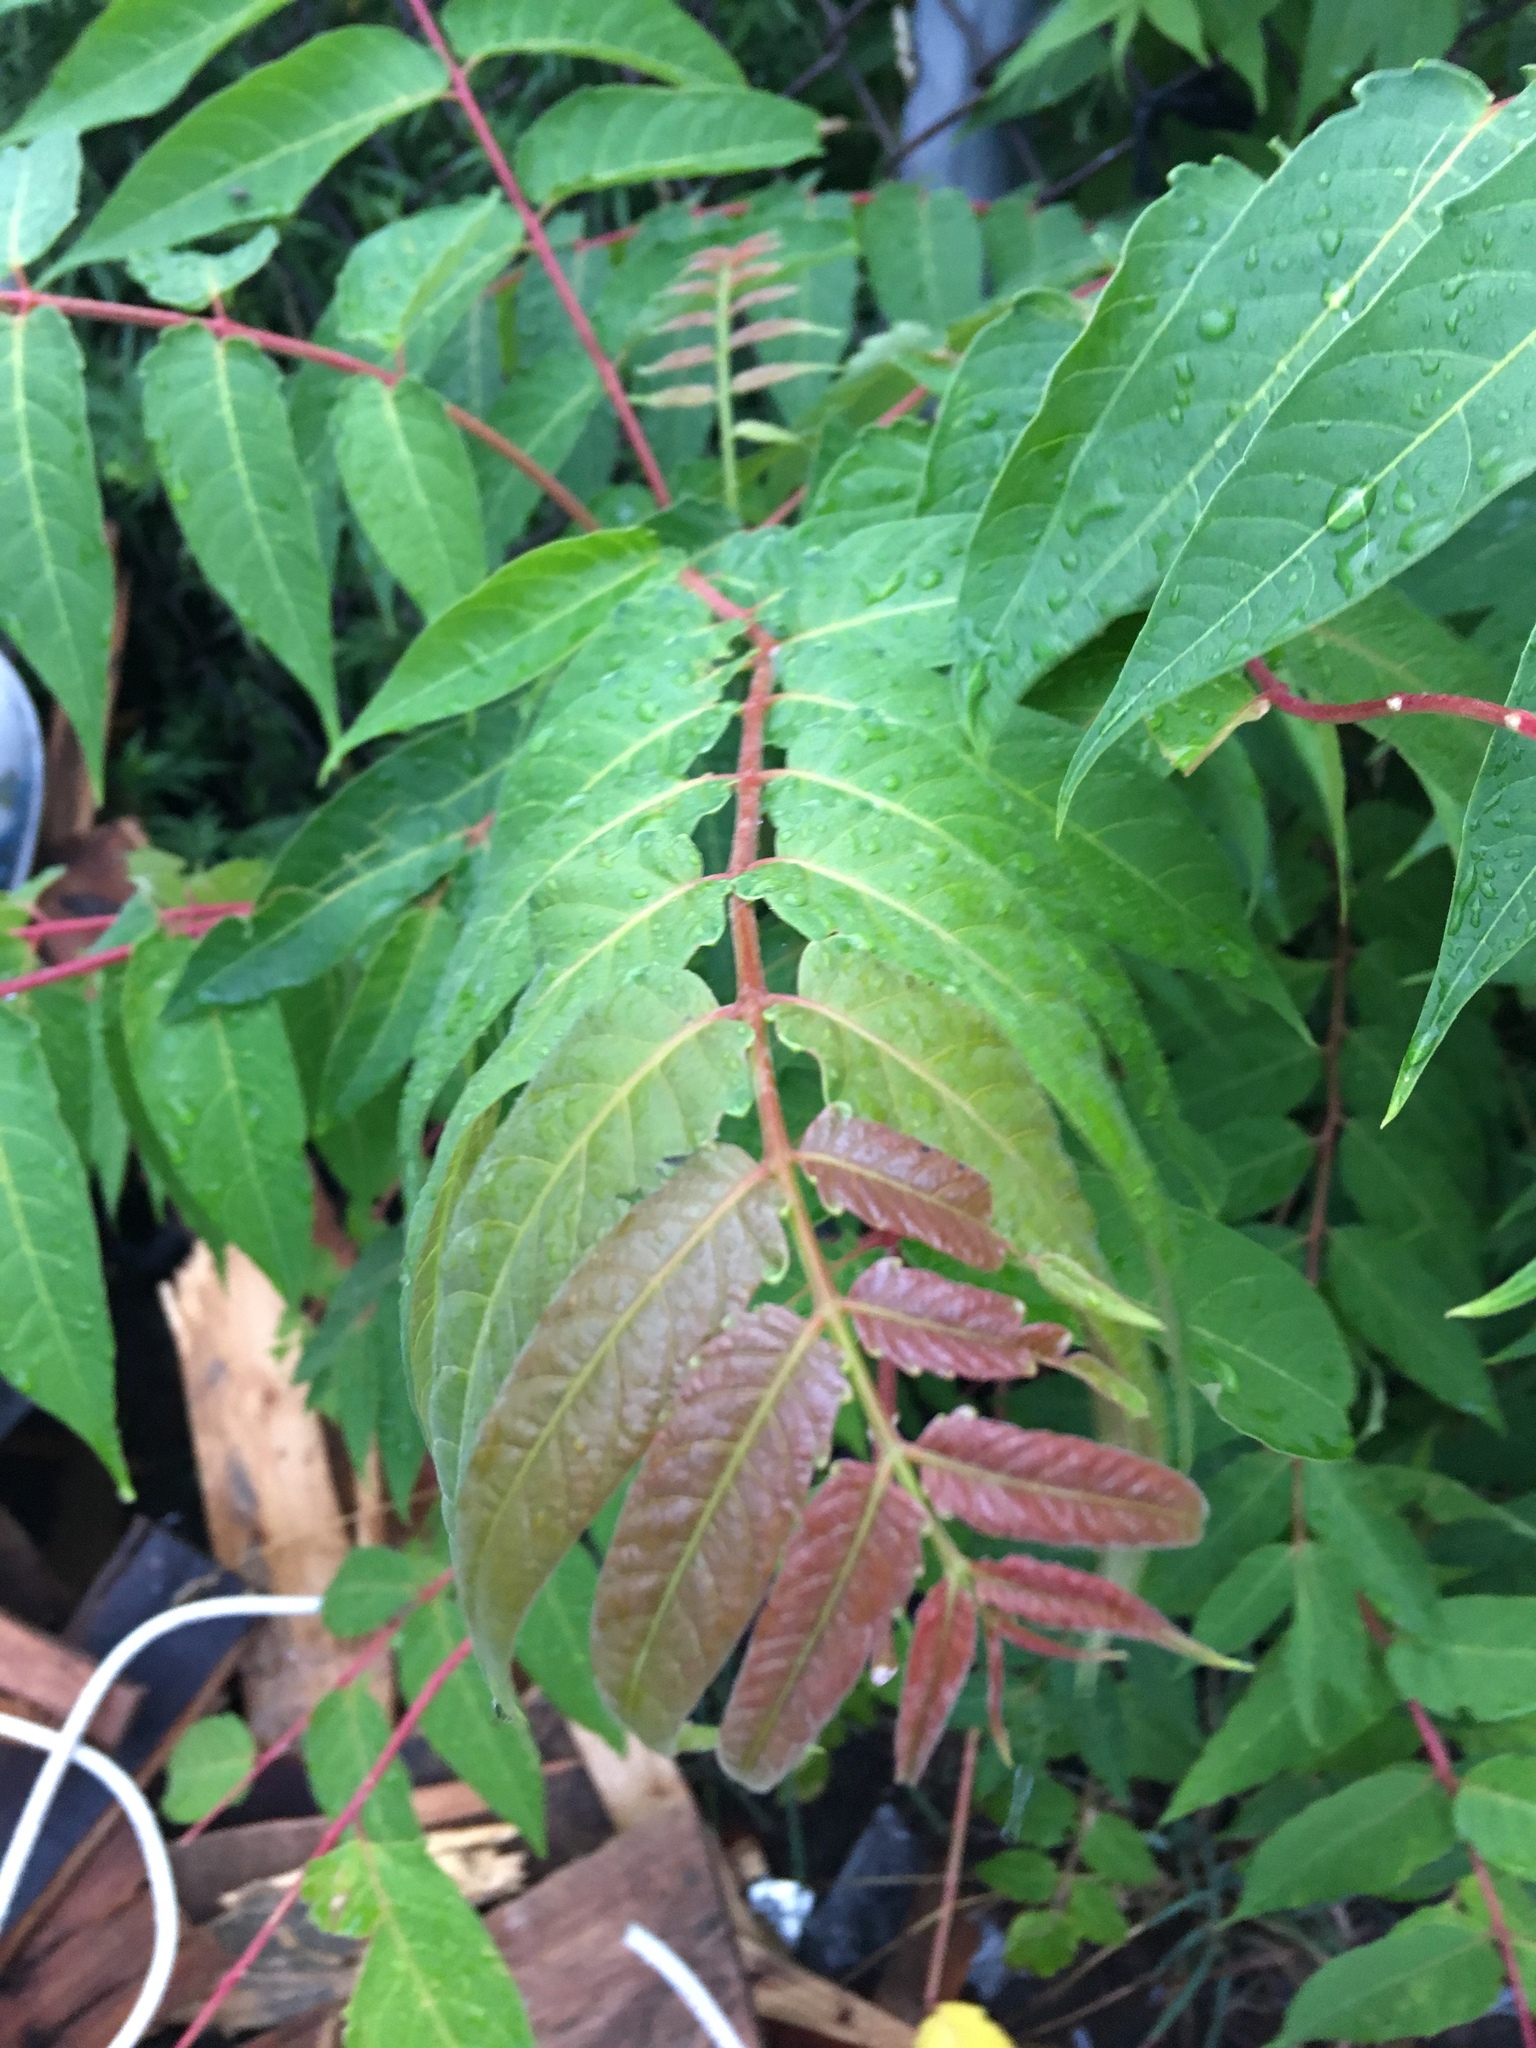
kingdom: Plantae
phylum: Tracheophyta
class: Magnoliopsida
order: Sapindales
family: Simaroubaceae
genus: Ailanthus
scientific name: Ailanthus altissima
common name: Tree-of-heaven
